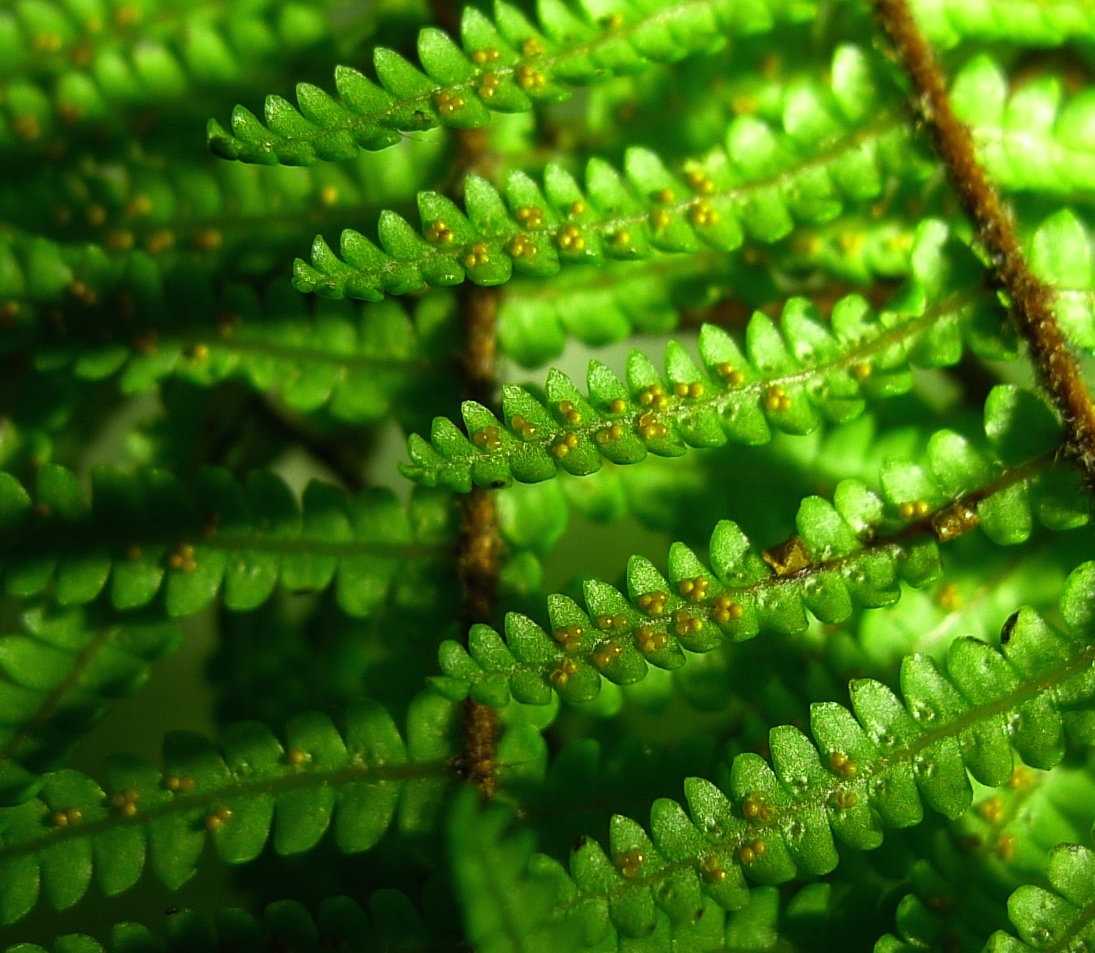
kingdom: Plantae
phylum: Tracheophyta
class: Polypodiopsida
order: Gleicheniales
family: Gleicheniaceae
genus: Gleichenia
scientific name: Gleichenia microphylla
